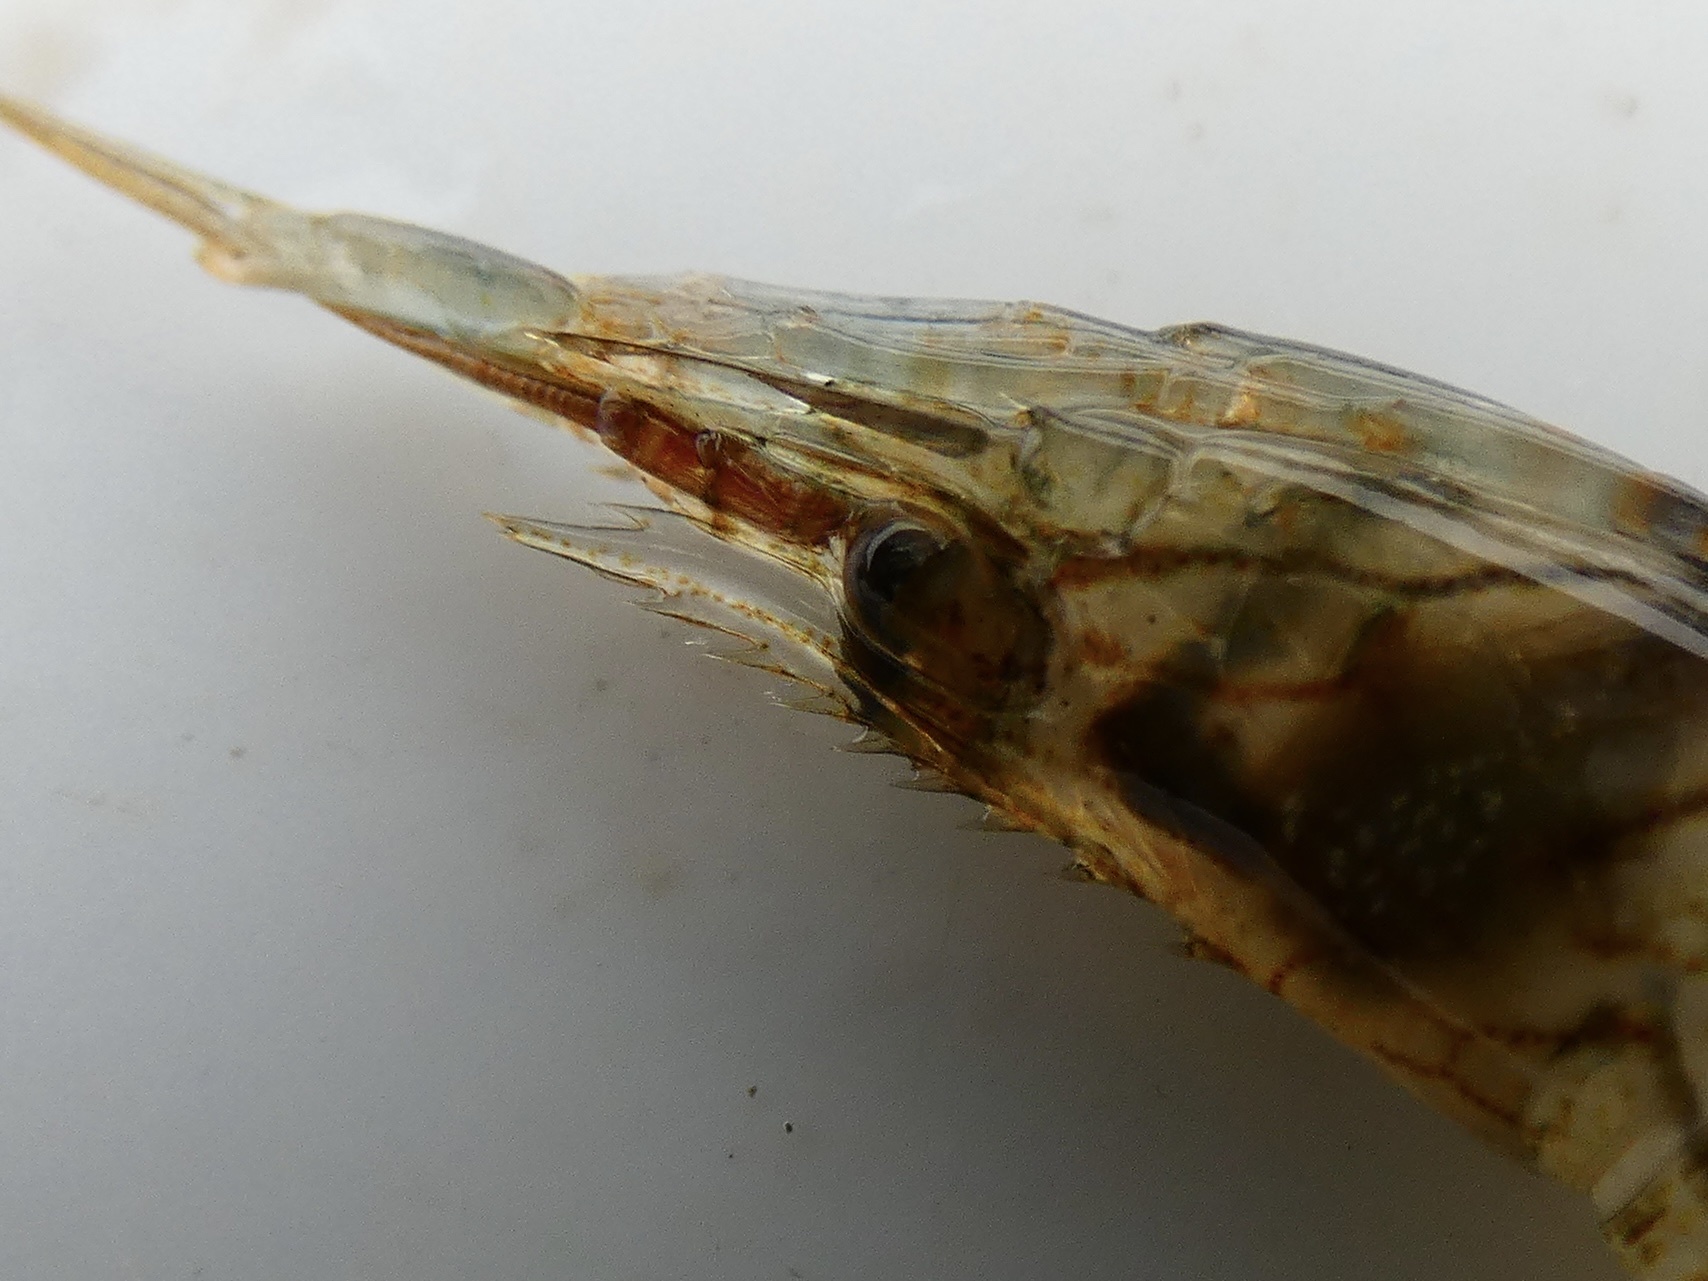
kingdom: Animalia
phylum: Arthropoda
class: Malacostraca
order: Decapoda
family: Palaemonidae
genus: Palaemon
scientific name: Palaemon elegans
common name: Grass prawm
